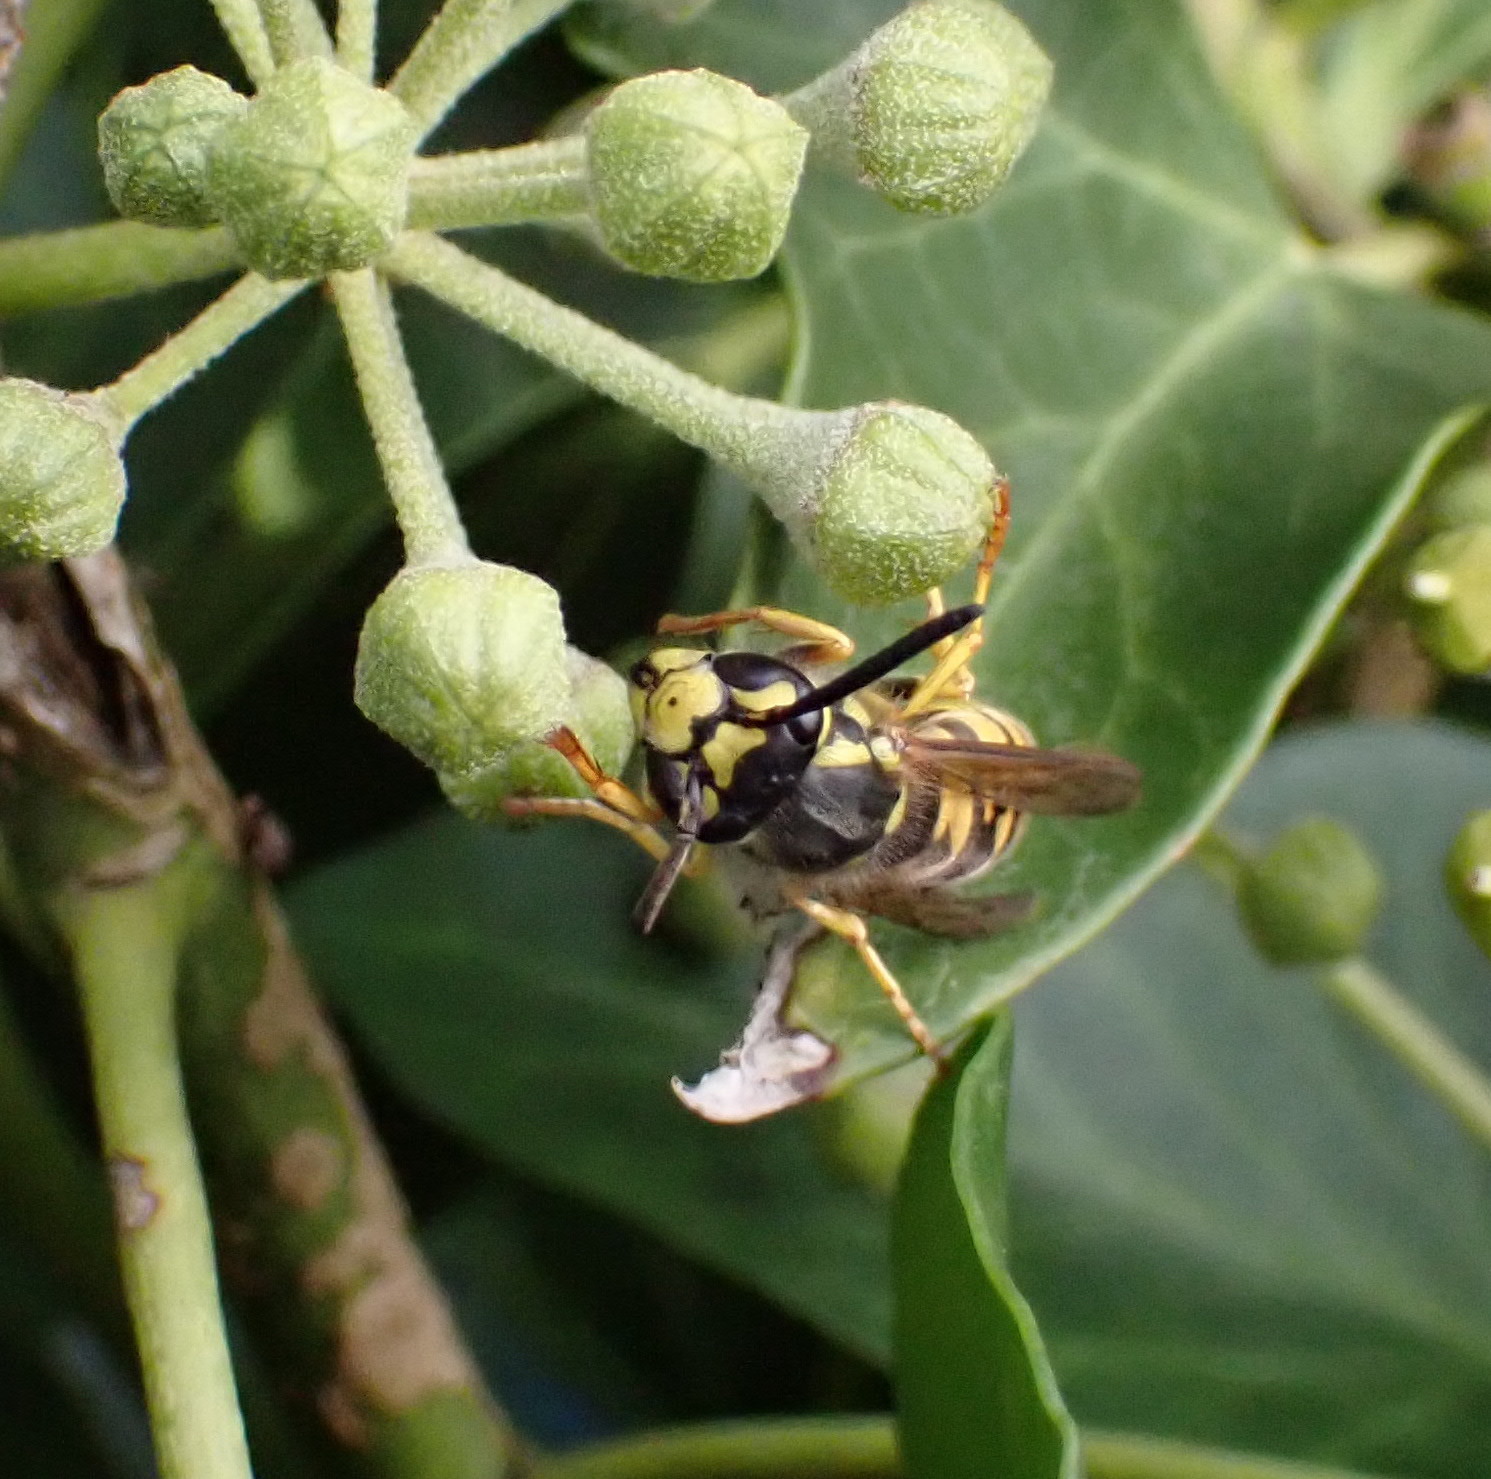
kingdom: Animalia
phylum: Arthropoda
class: Insecta
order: Hymenoptera
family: Vespidae
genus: Vespula
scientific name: Vespula germanica
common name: German wasp
